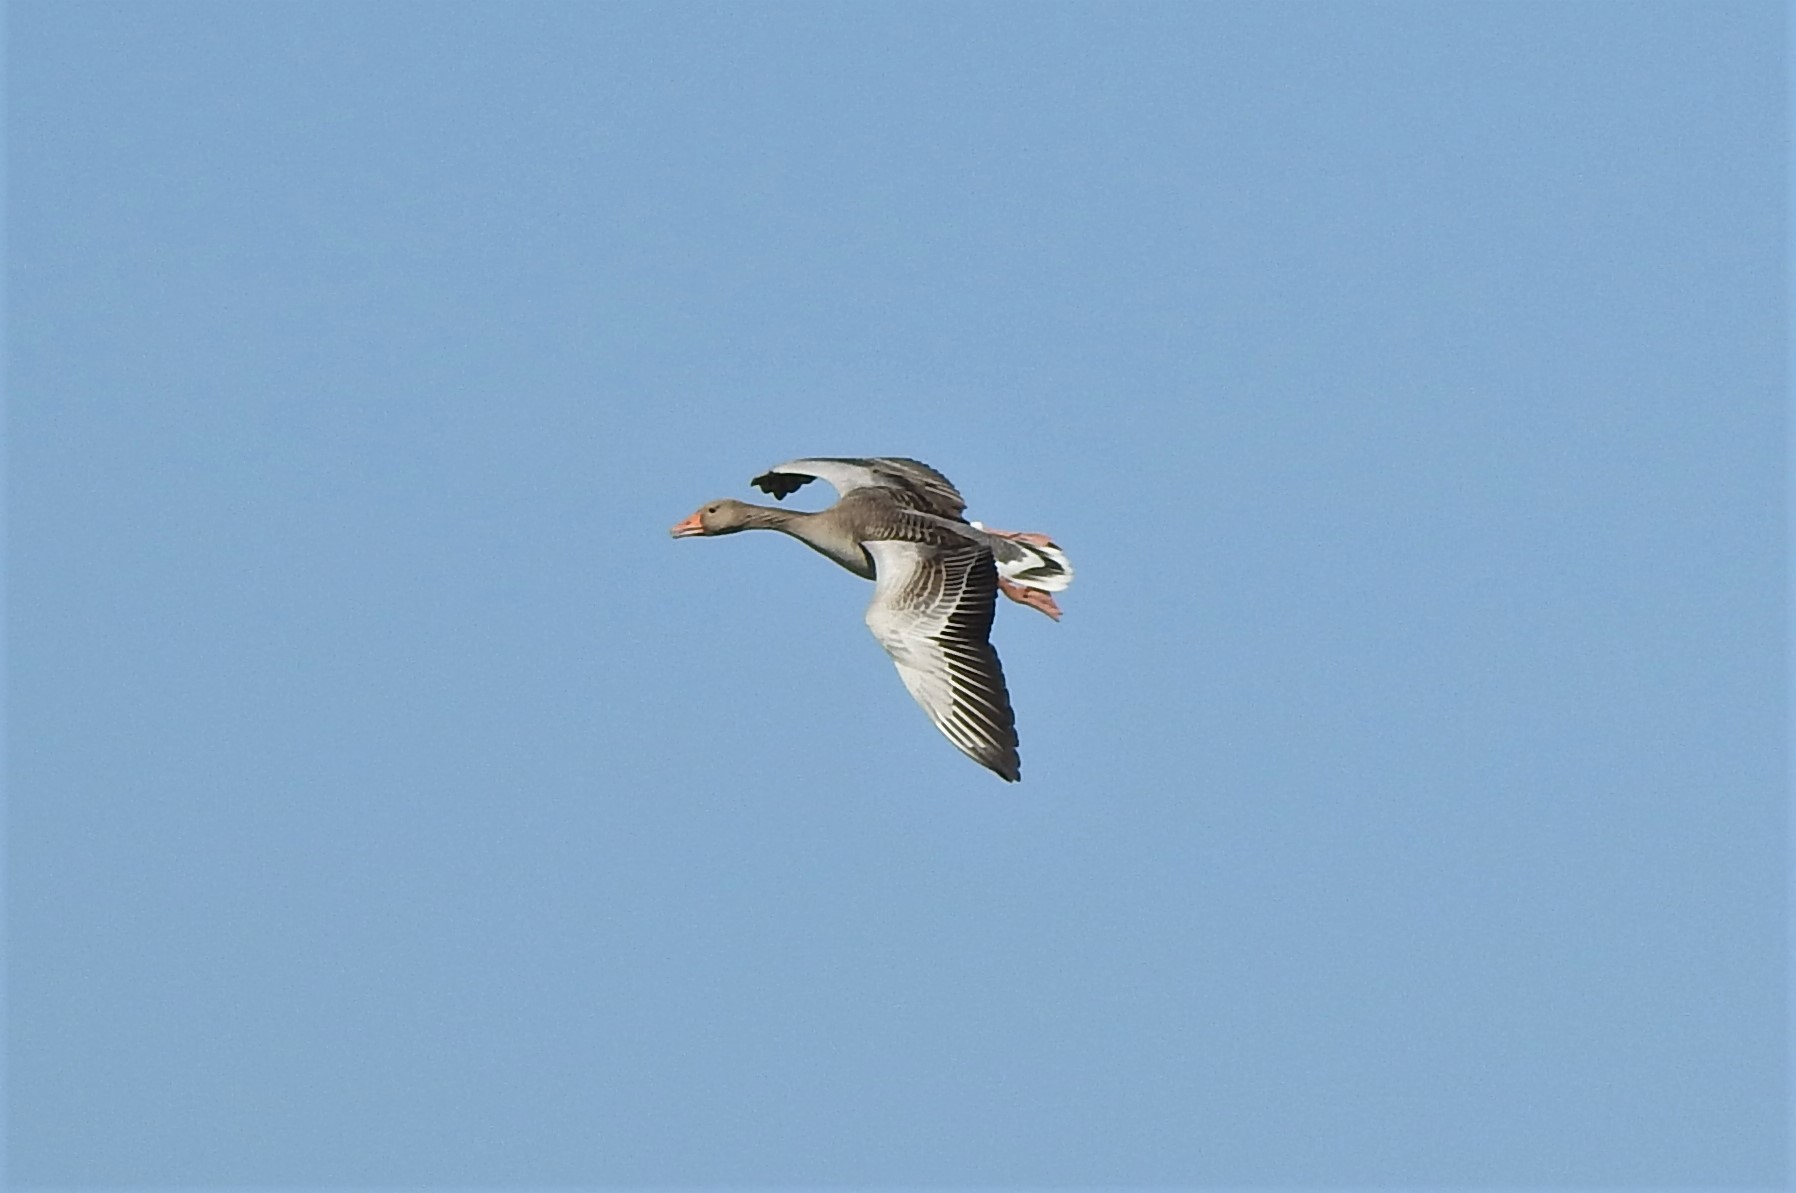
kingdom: Animalia
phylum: Chordata
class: Aves
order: Anseriformes
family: Anatidae
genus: Anser
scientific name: Anser anser
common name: Greylag goose
